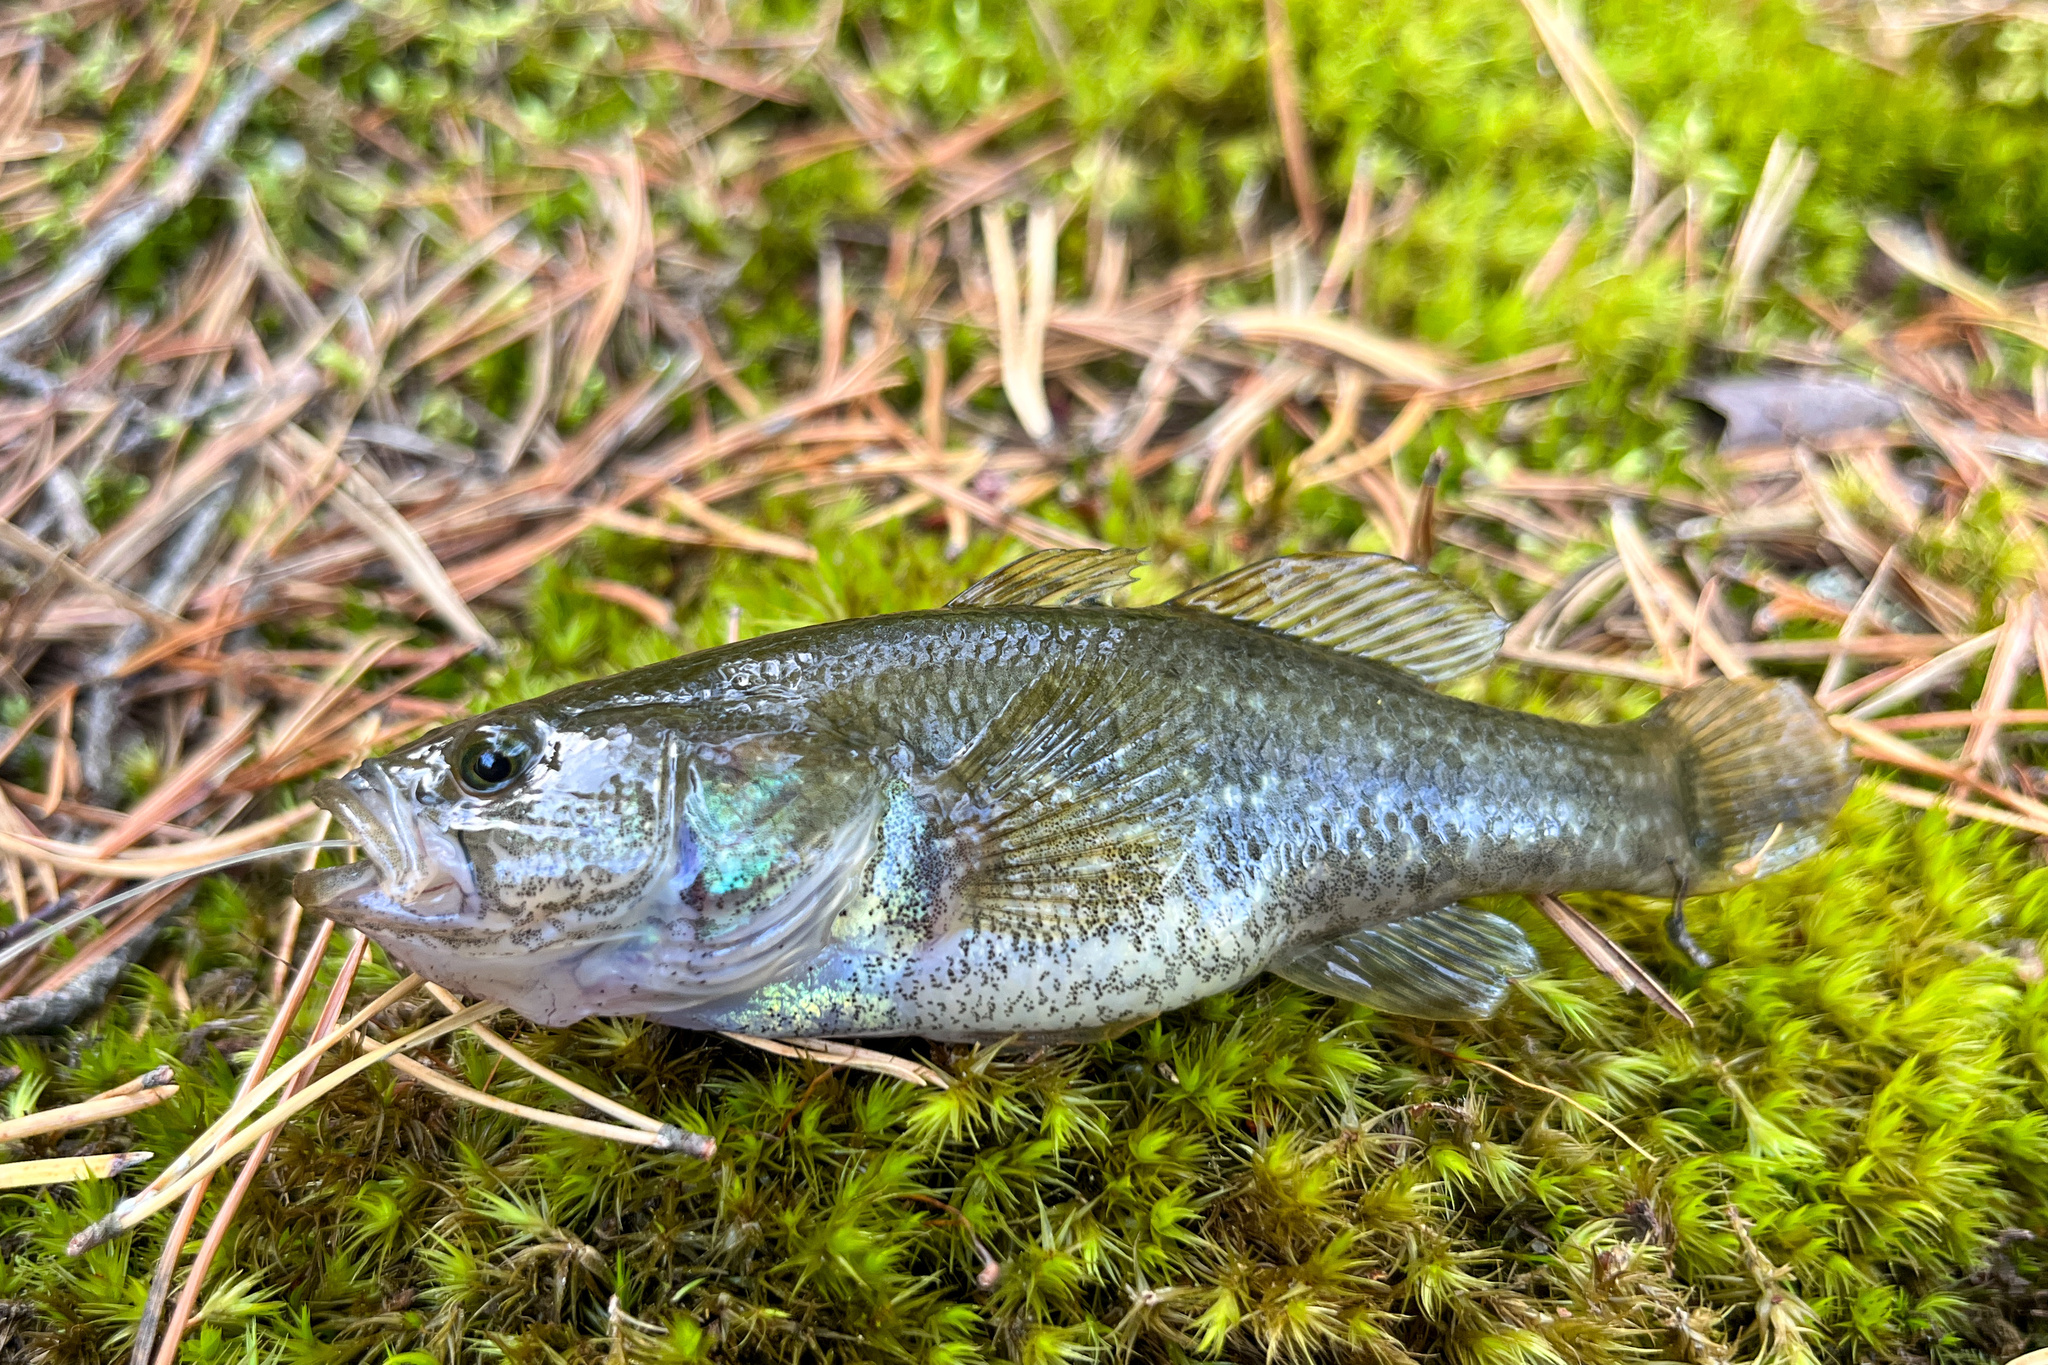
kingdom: Animalia
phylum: Chordata
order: Perciformes
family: Odontobutidae
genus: Perccottus
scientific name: Perccottus glenii
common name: Amur sleeper
